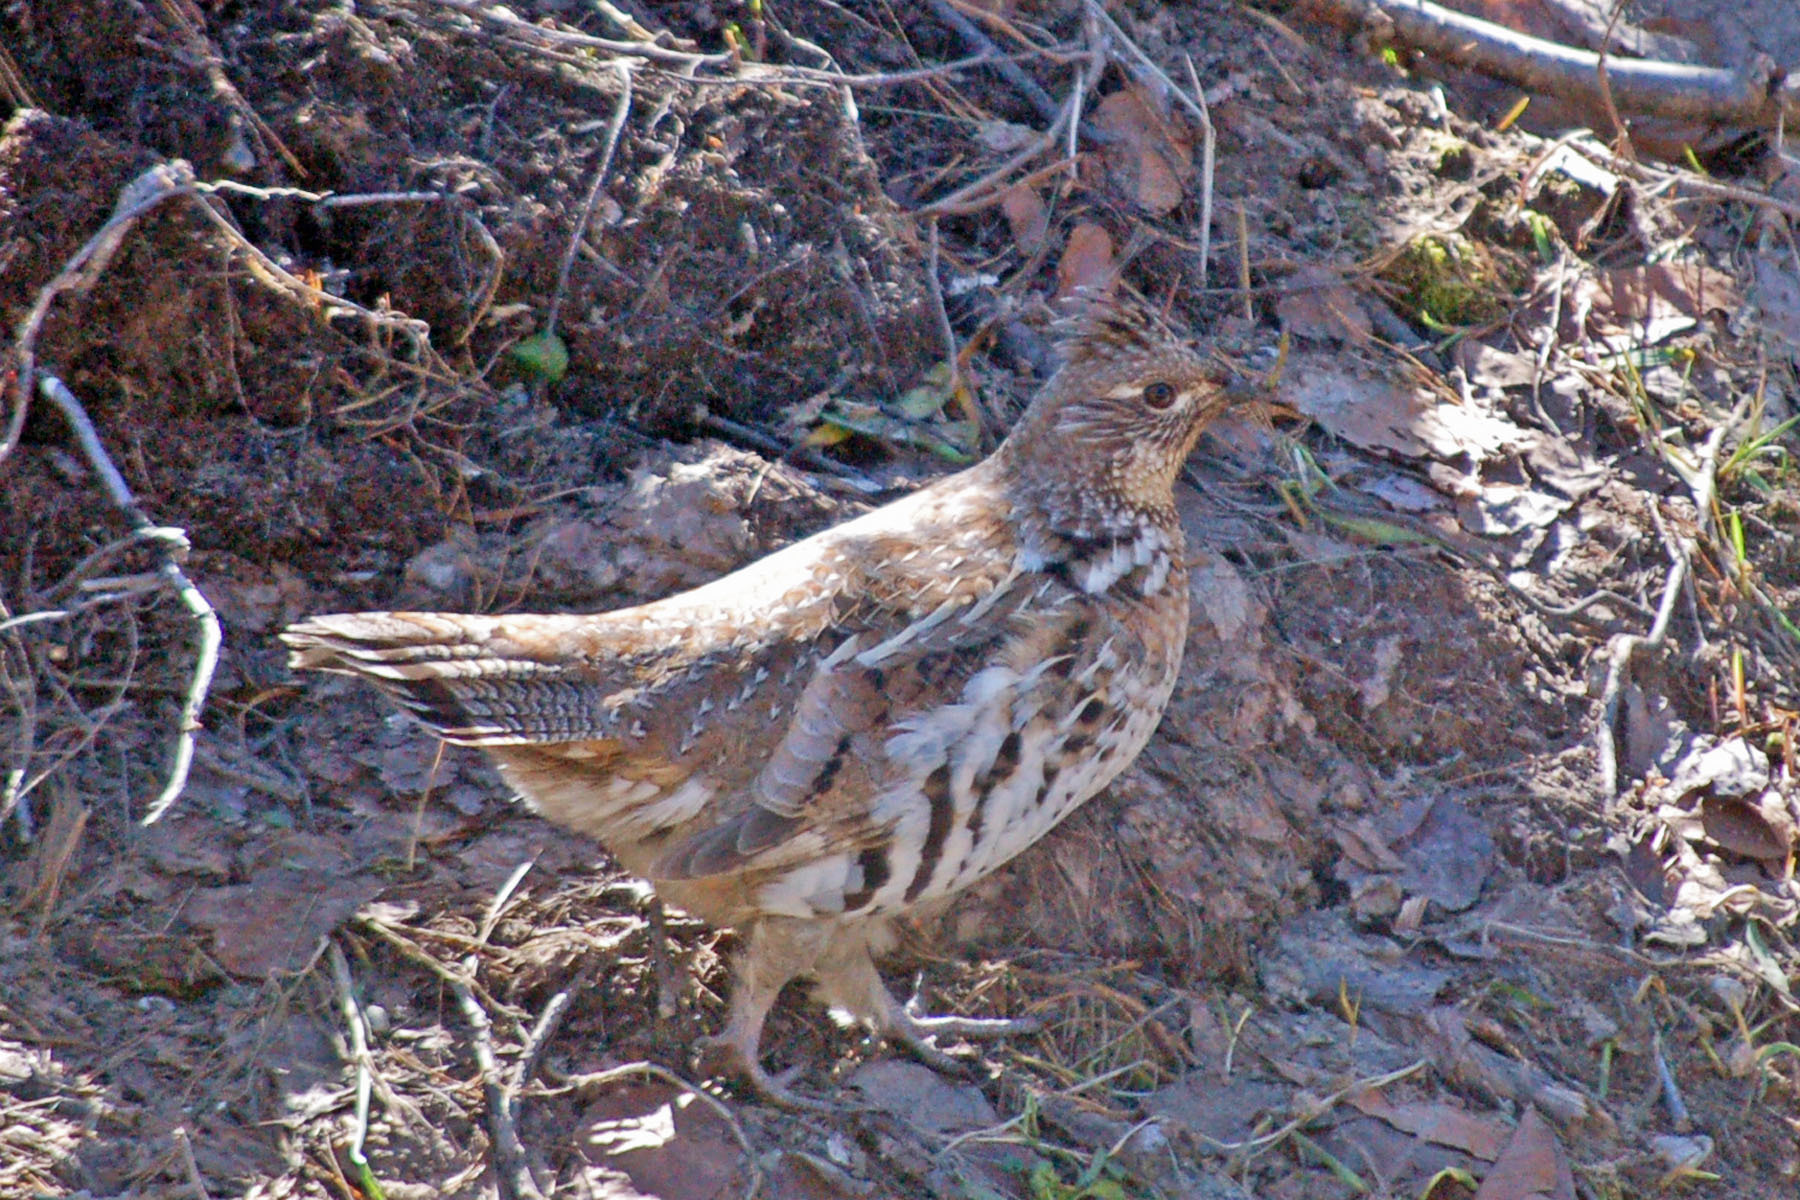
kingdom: Animalia
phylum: Chordata
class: Aves
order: Galliformes
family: Phasianidae
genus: Bonasa
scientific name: Bonasa umbellus
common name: Ruffed grouse
